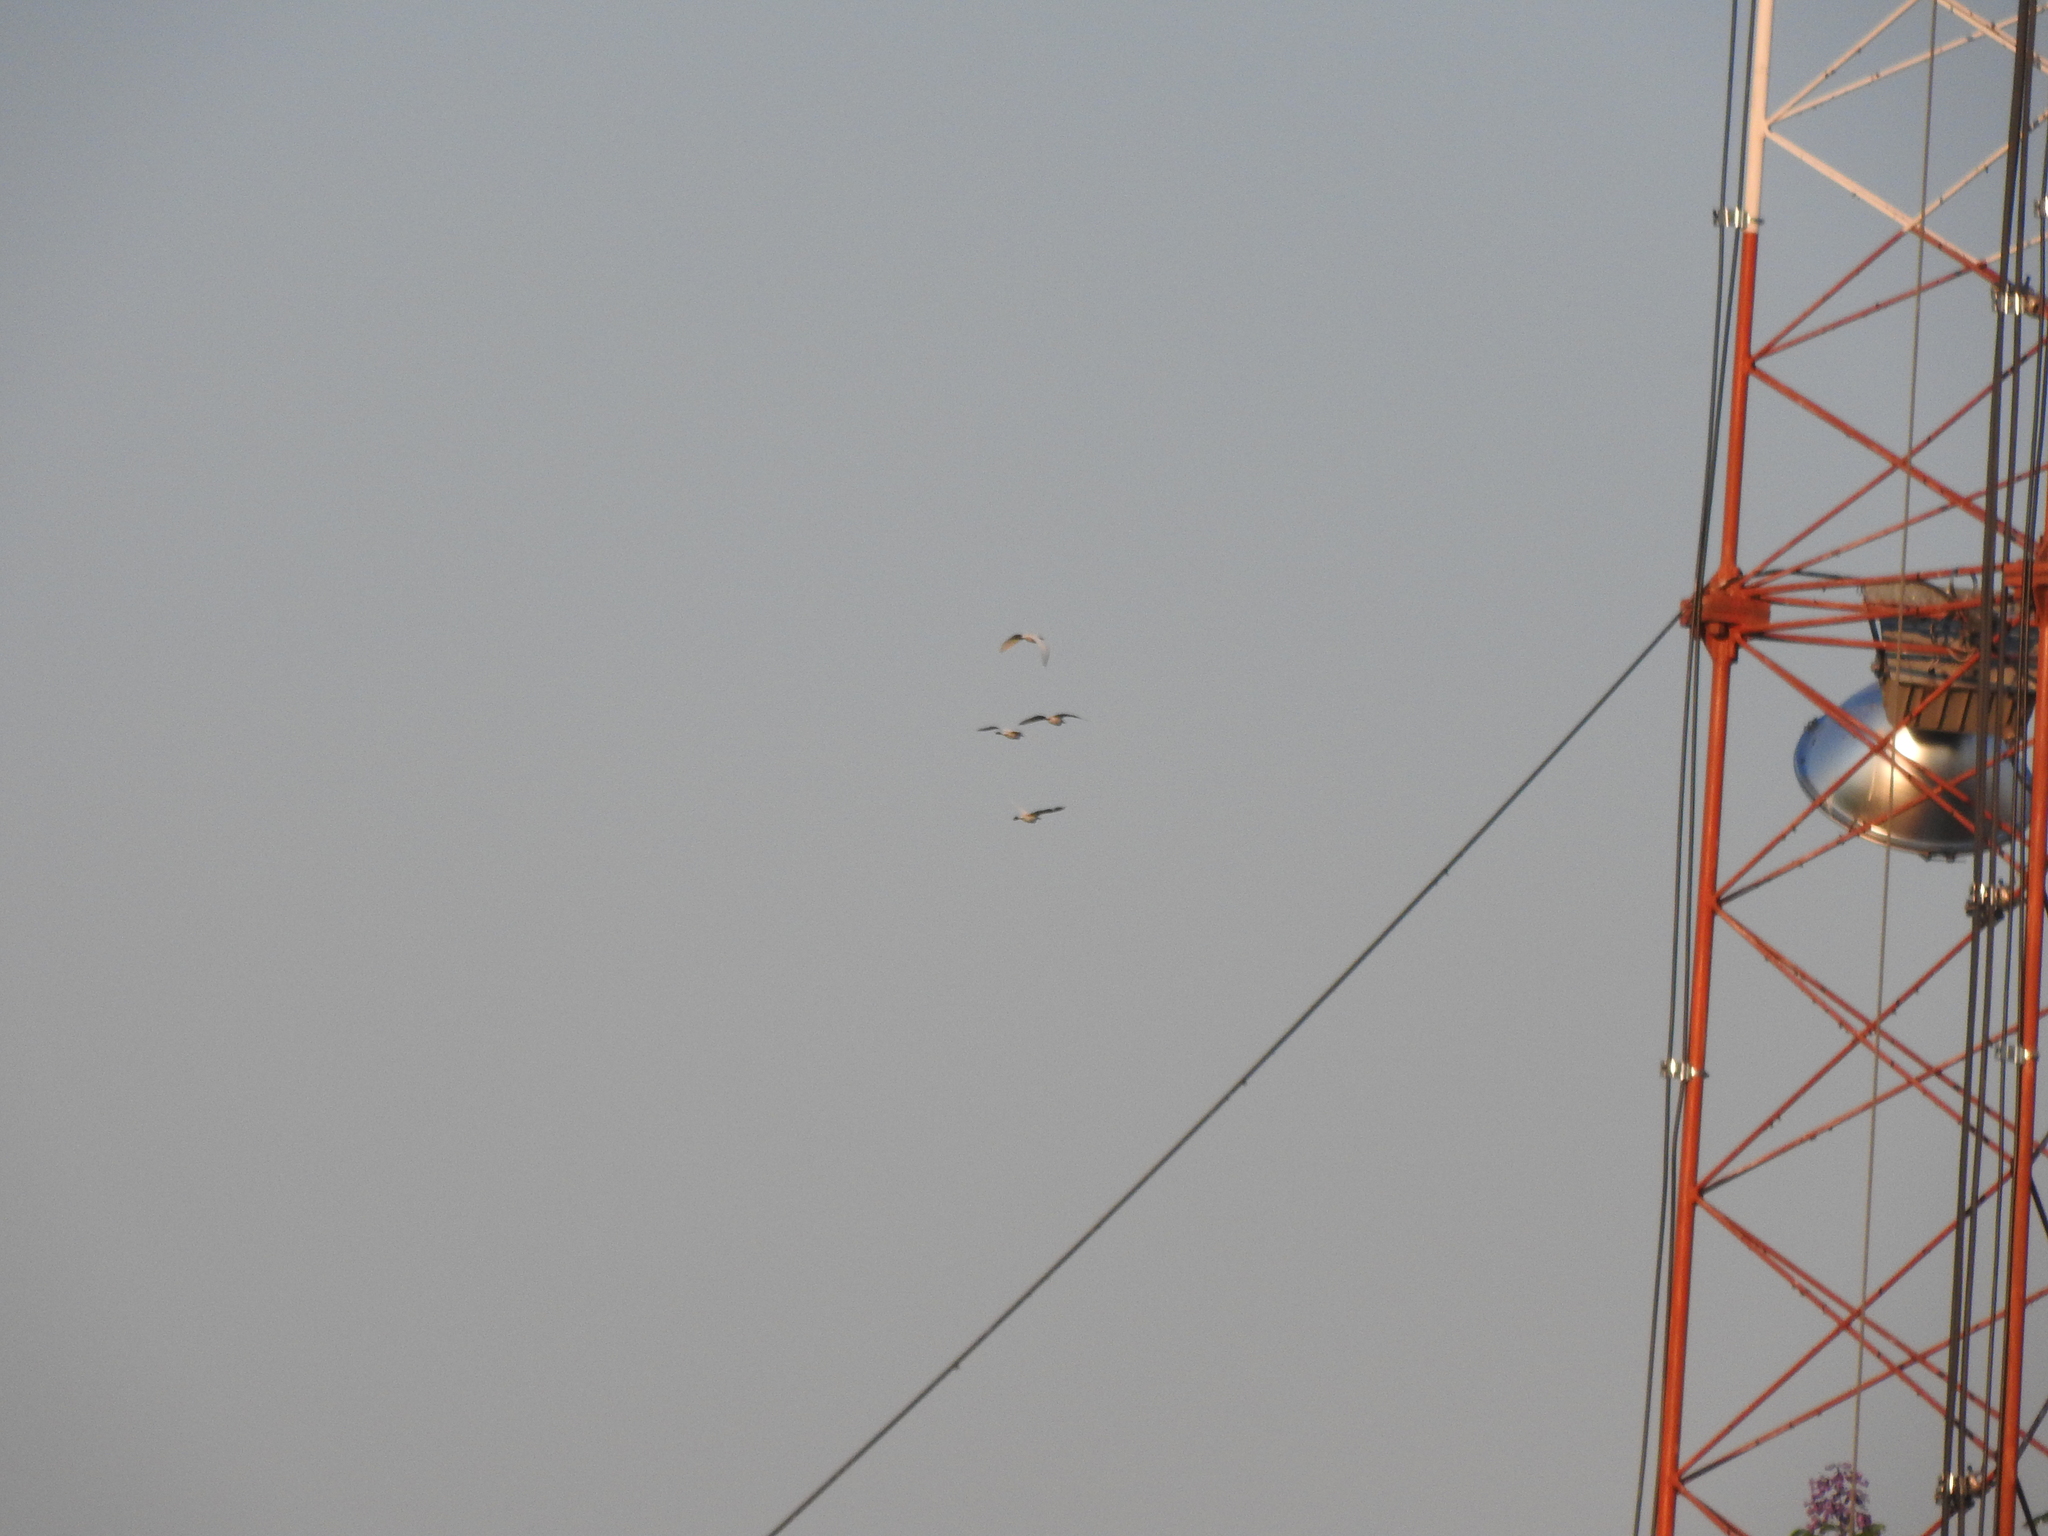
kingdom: Animalia
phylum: Chordata
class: Aves
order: Pelecaniformes
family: Ardeidae
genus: Bubulcus
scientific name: Bubulcus ibis
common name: Cattle egret
